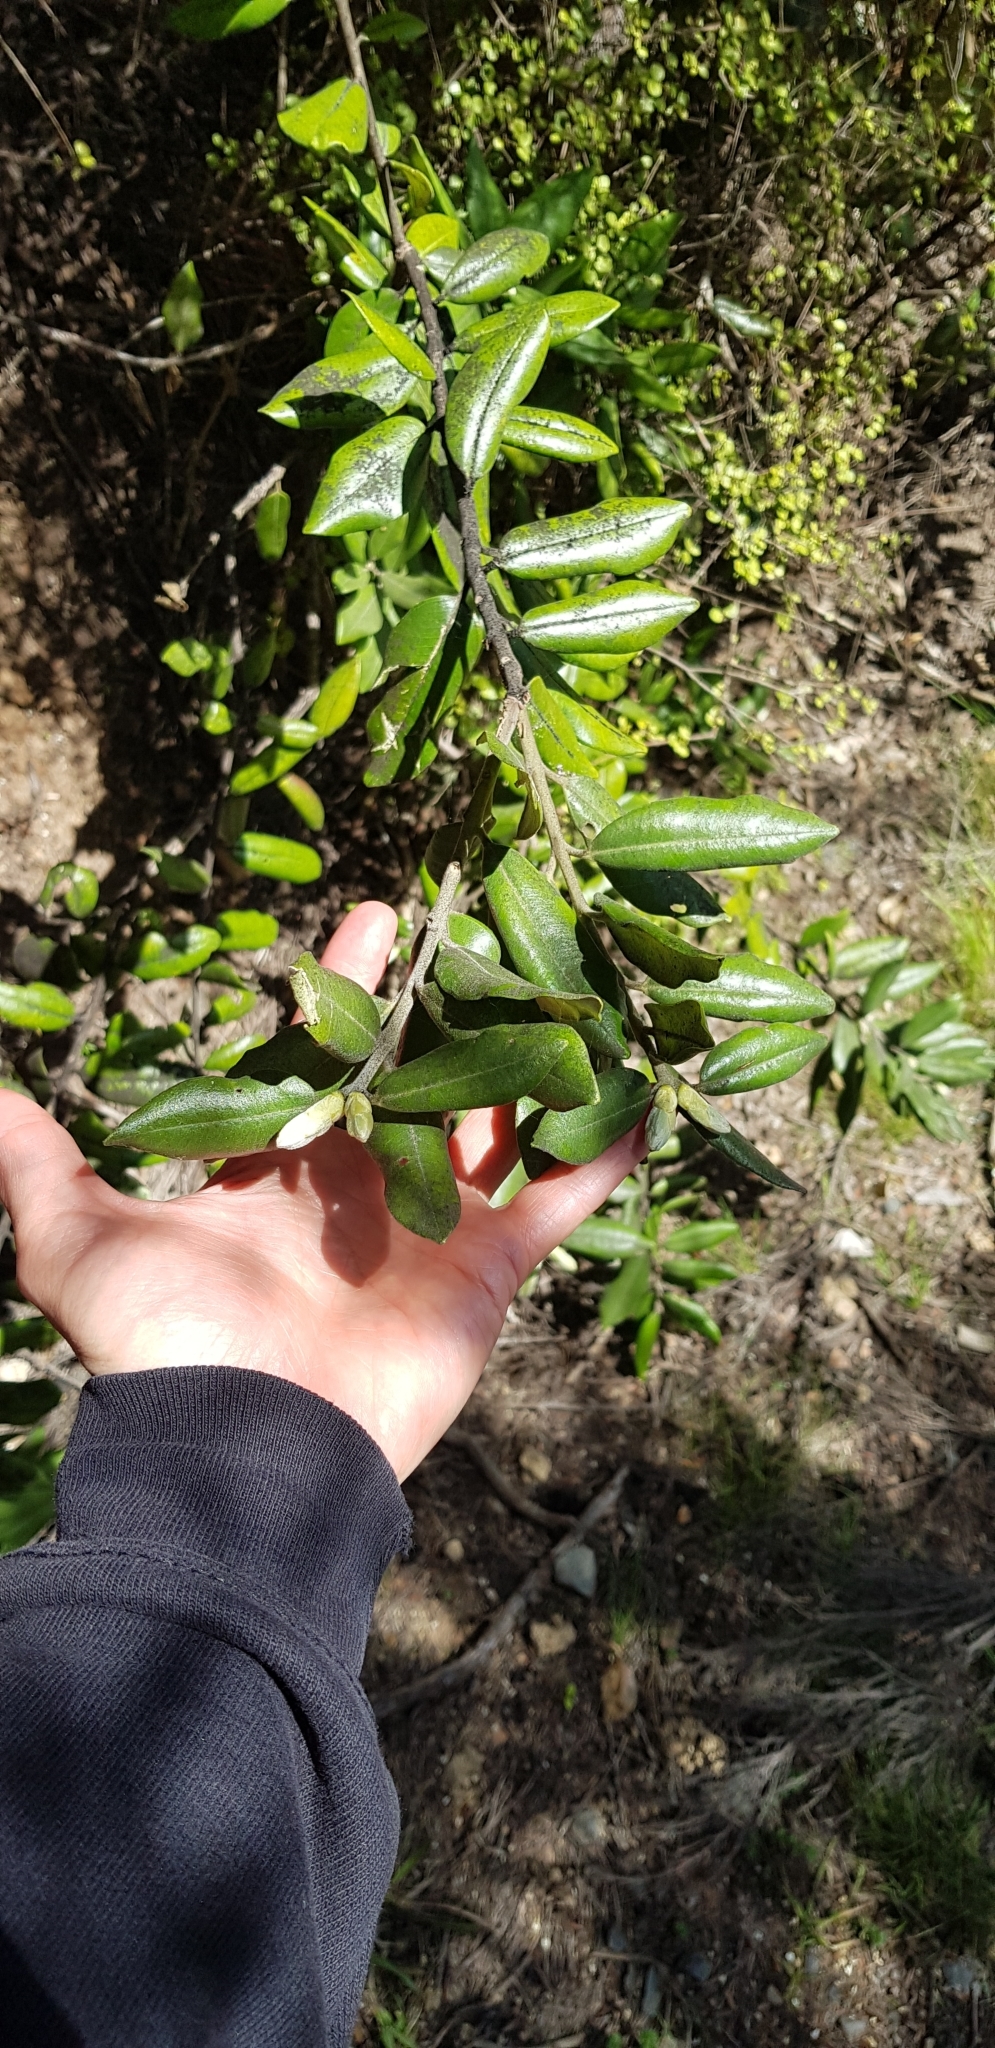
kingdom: Plantae
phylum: Tracheophyta
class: Magnoliopsida
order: Myrtales
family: Myrtaceae
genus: Metrosideros
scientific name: Metrosideros excelsa
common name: New zealand christmastree
